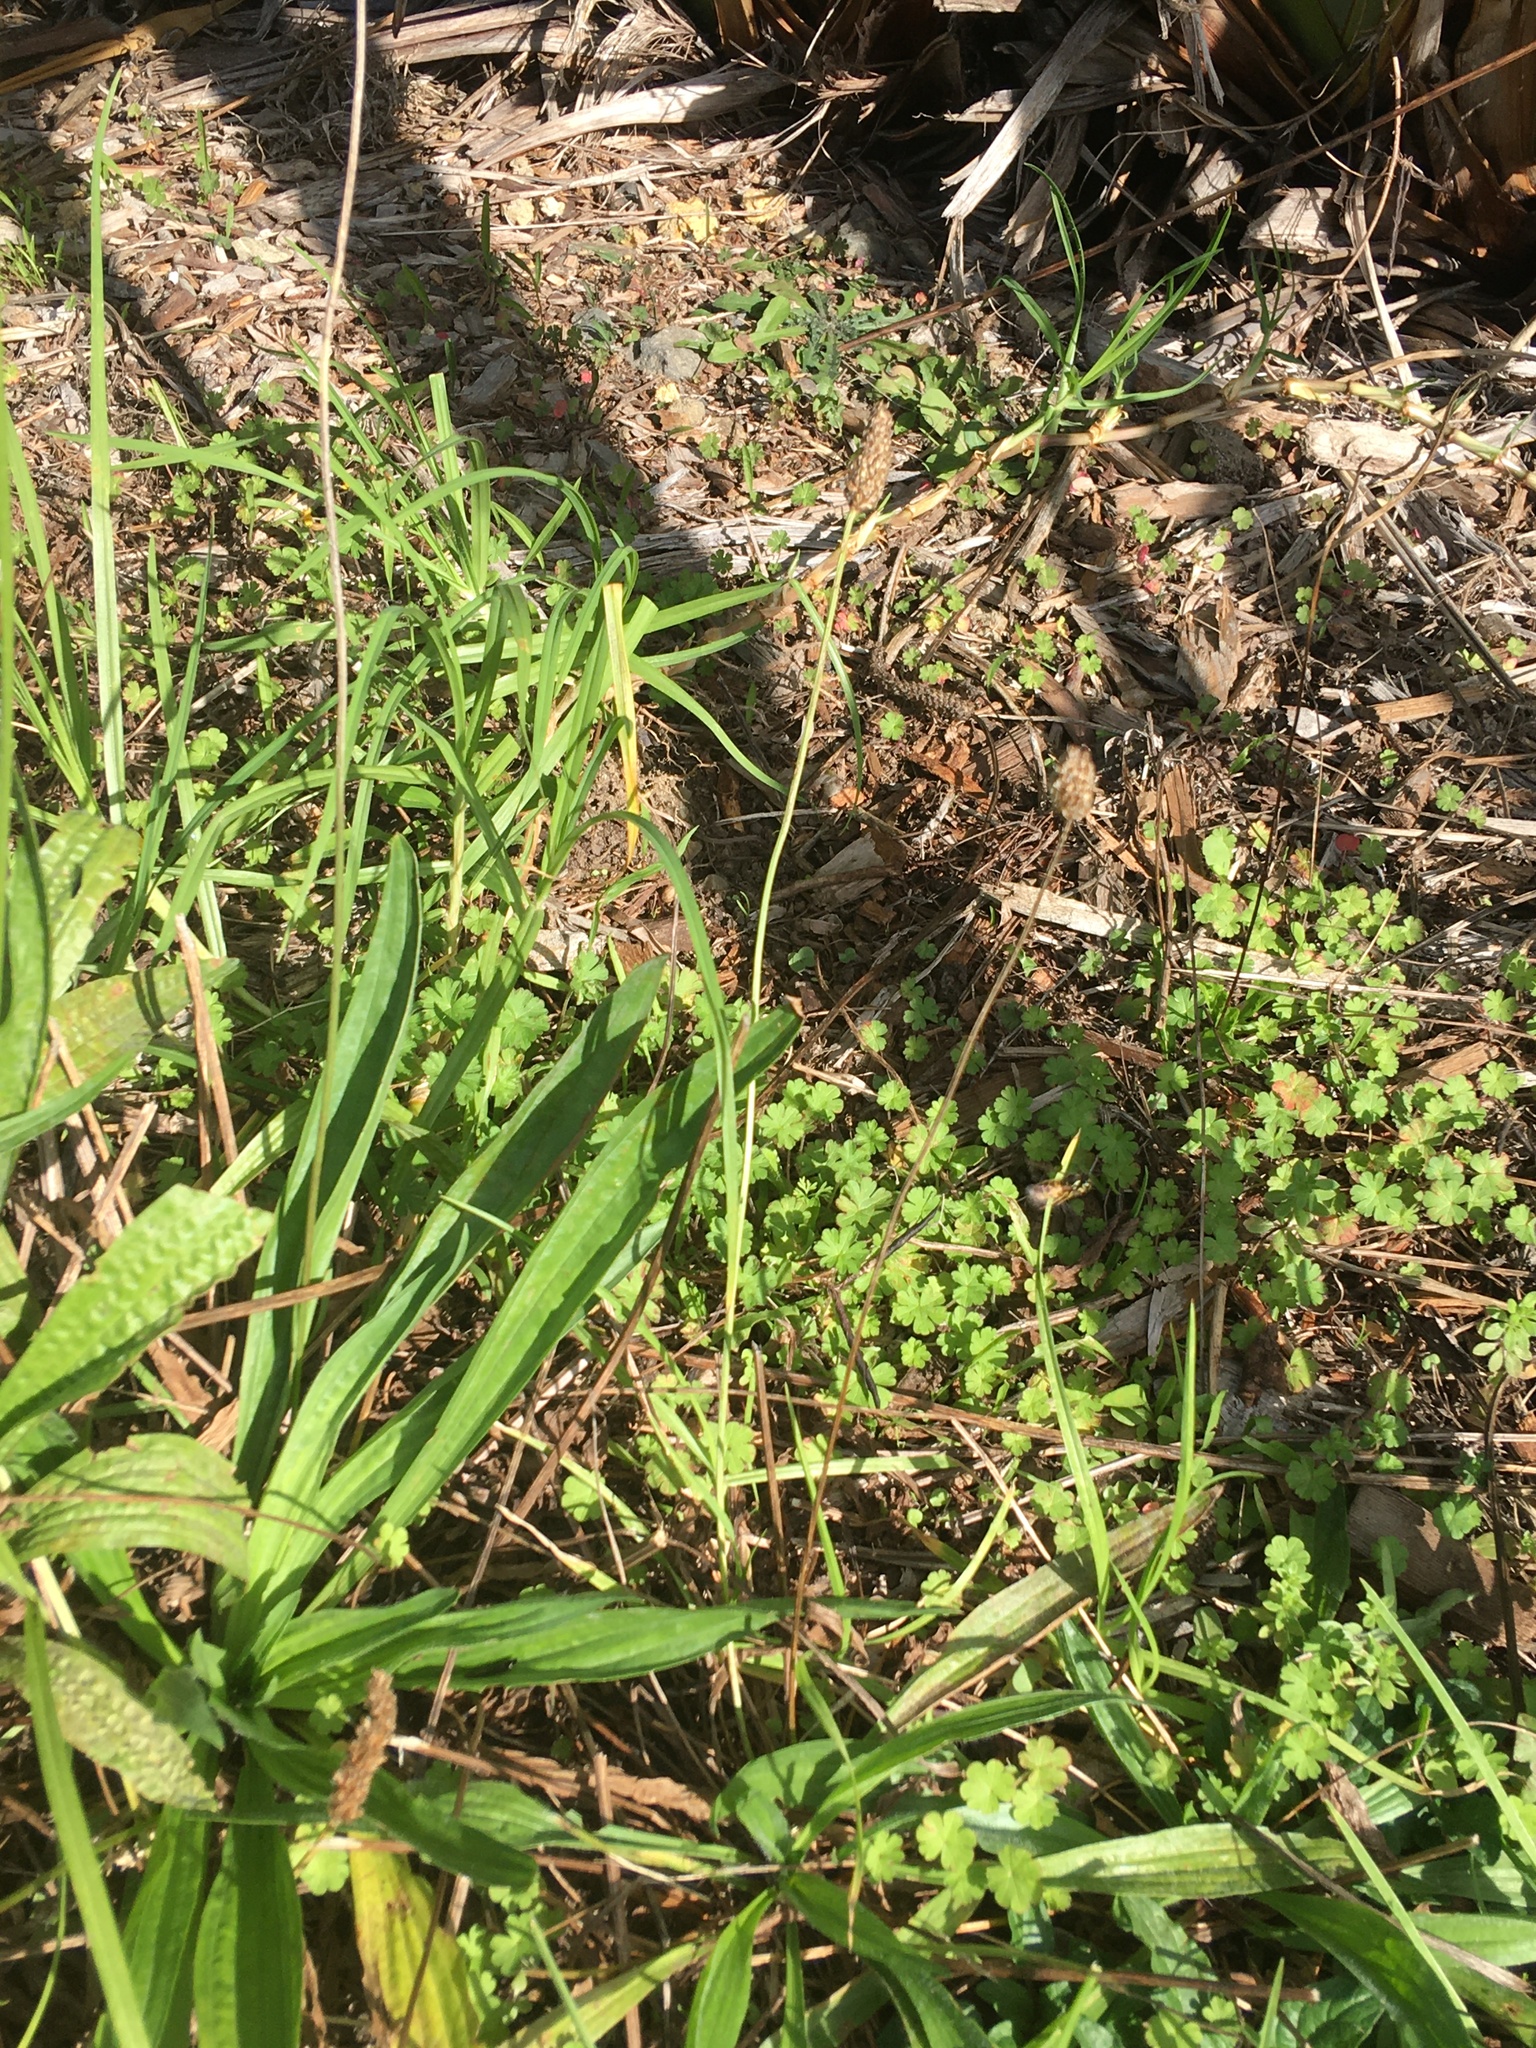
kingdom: Animalia
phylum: Arthropoda
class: Insecta
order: Hymenoptera
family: Vespidae
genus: Vespula
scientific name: Vespula
